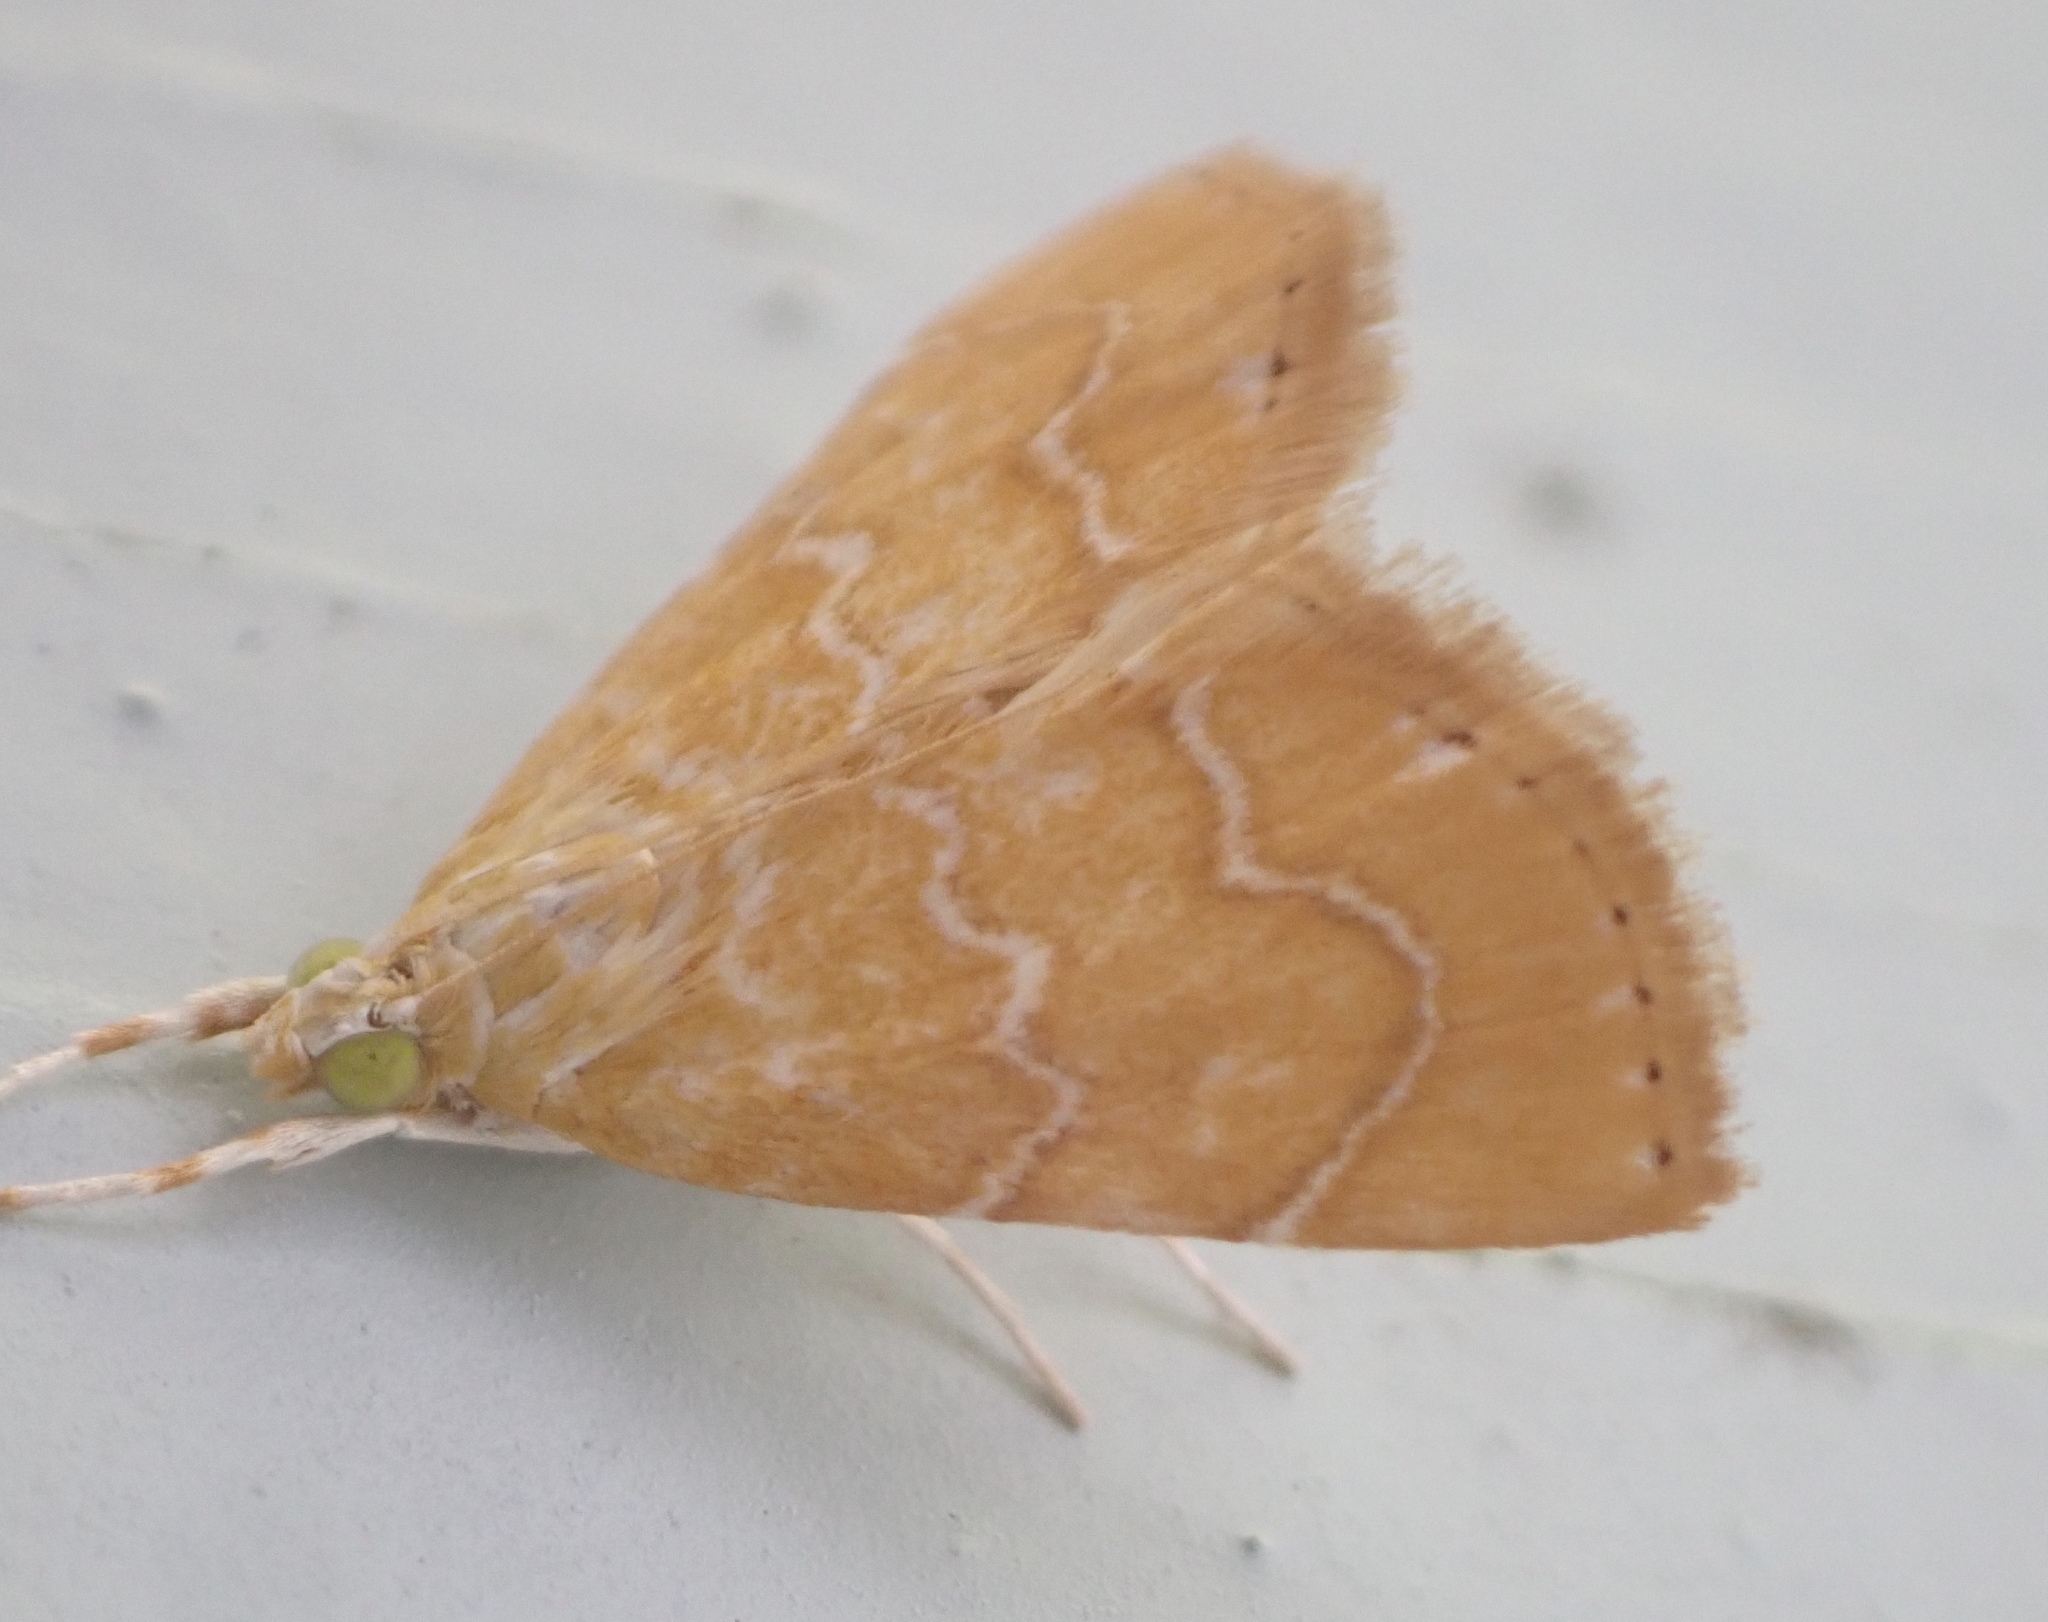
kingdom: Animalia
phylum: Arthropoda
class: Insecta
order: Lepidoptera
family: Crambidae
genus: Glaphyria
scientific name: Glaphyria sesquistrialis
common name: White-roped glaphyria
